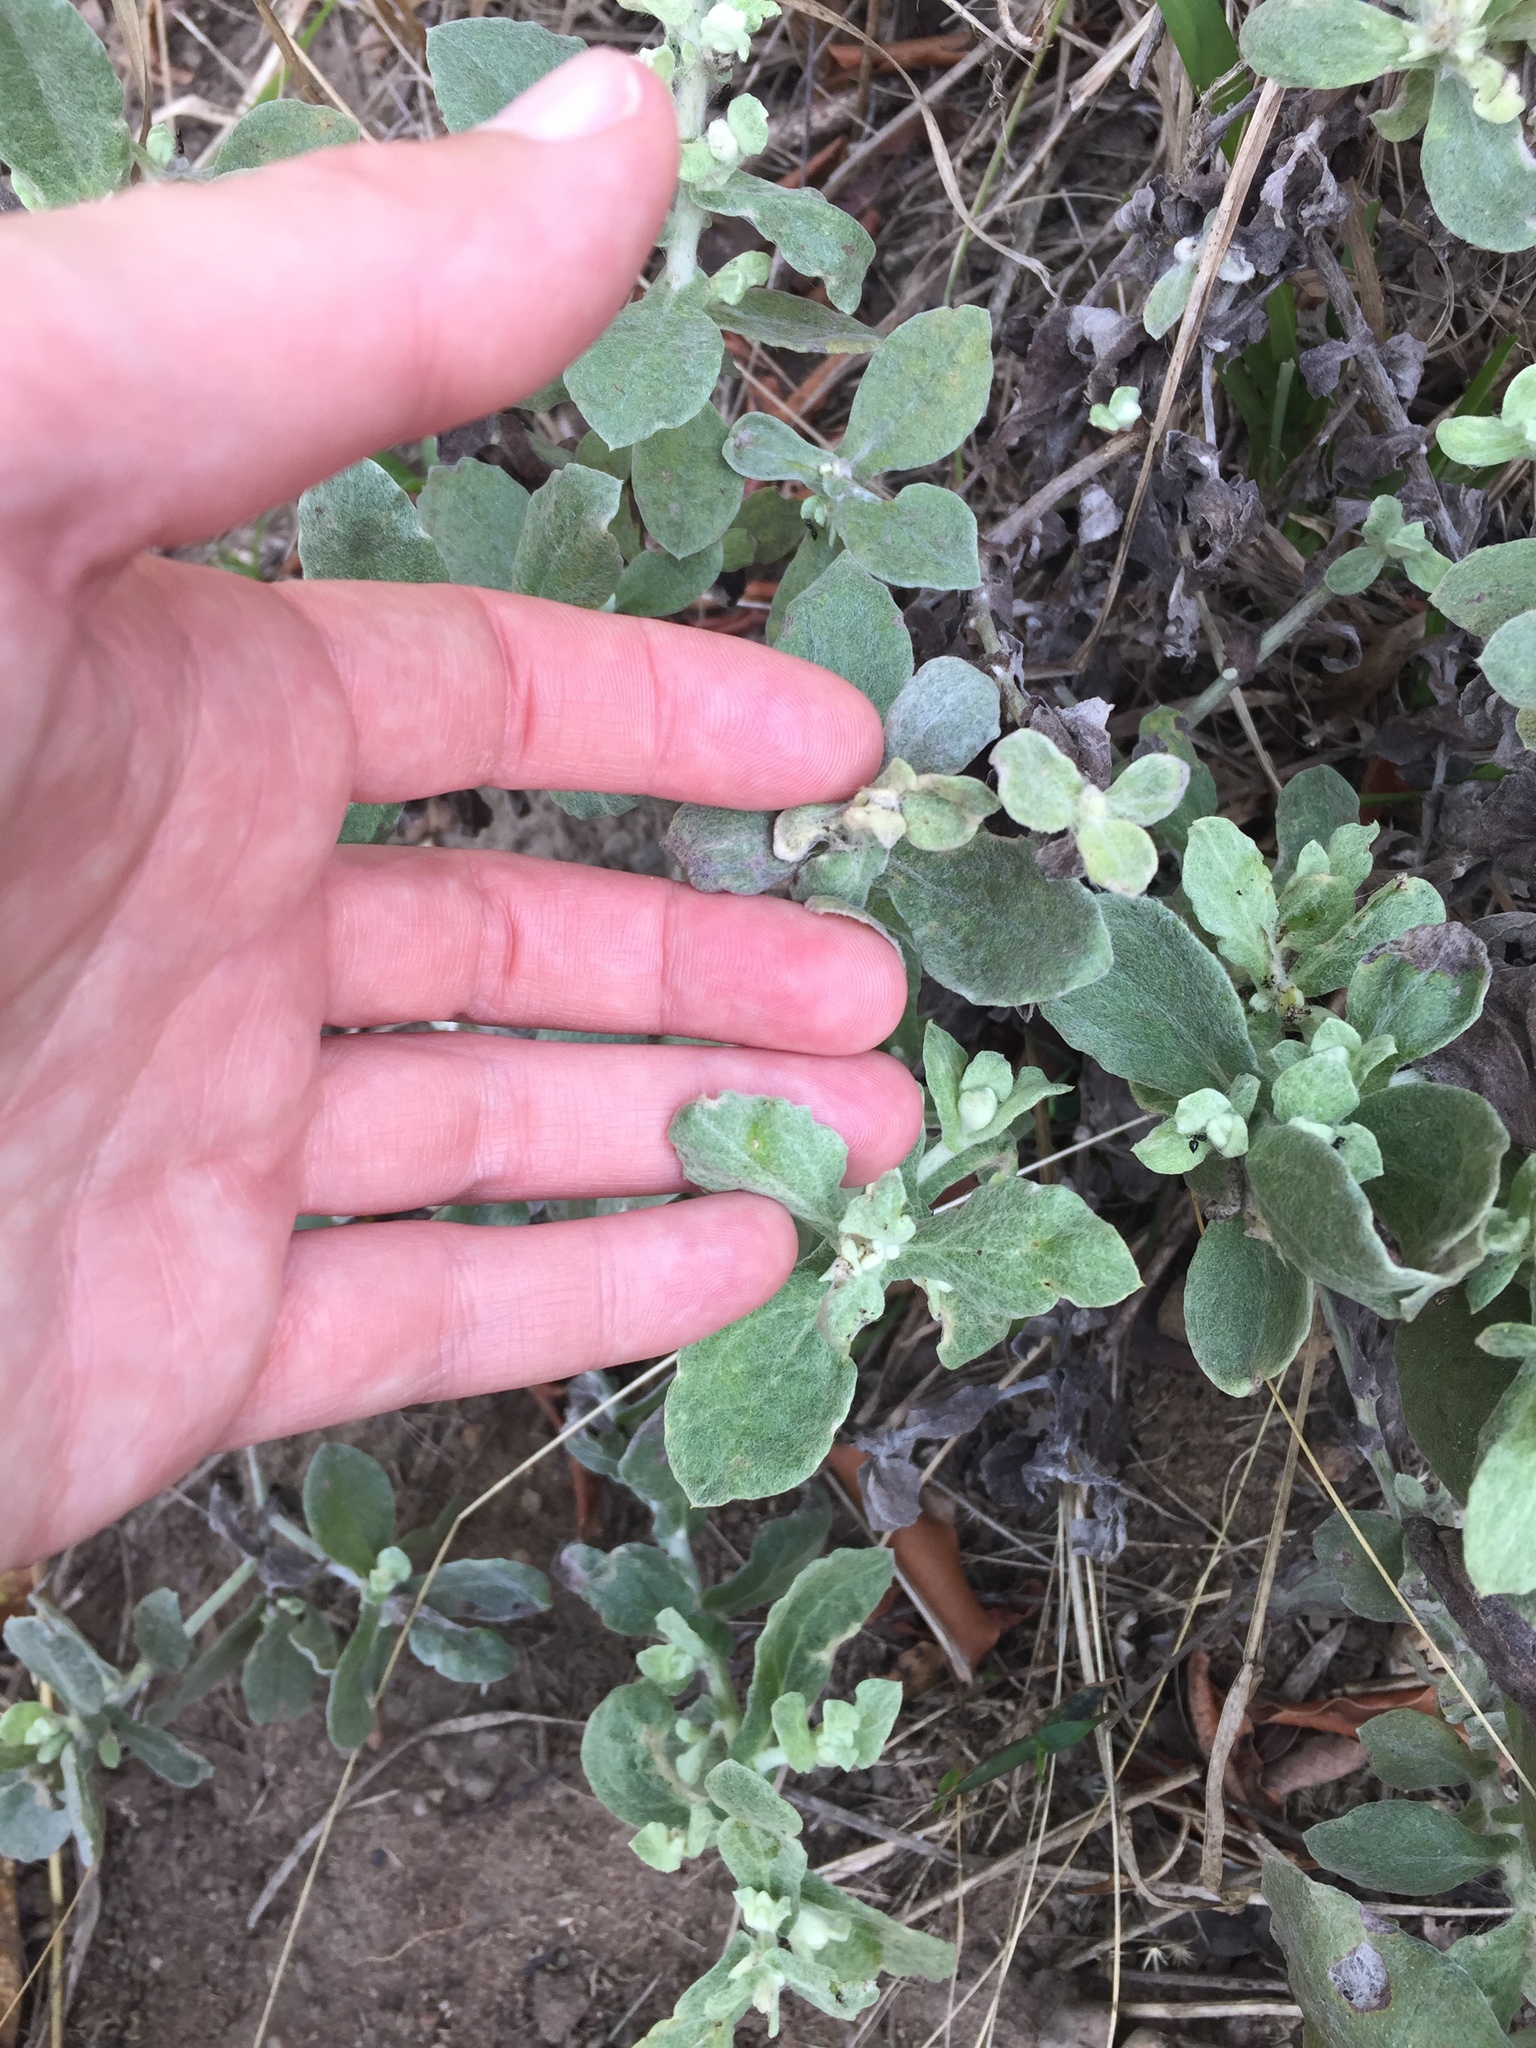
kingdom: Plantae
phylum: Tracheophyta
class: Magnoliopsida
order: Asterales
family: Asteraceae
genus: Helichrysum
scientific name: Helichrysum panduratum
